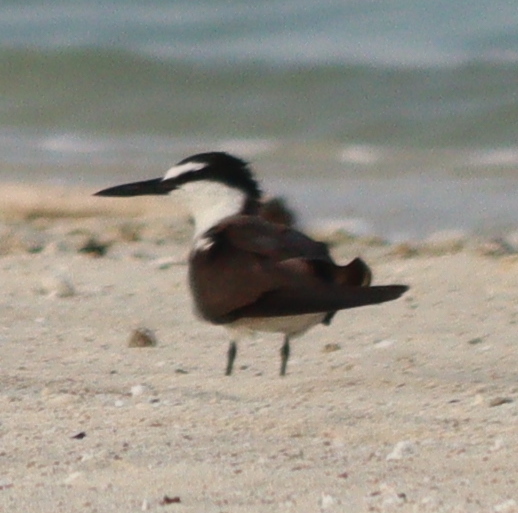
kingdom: Animalia
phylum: Chordata
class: Aves
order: Charadriiformes
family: Laridae
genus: Onychoprion
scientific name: Onychoprion anaethetus
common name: Bridled tern
